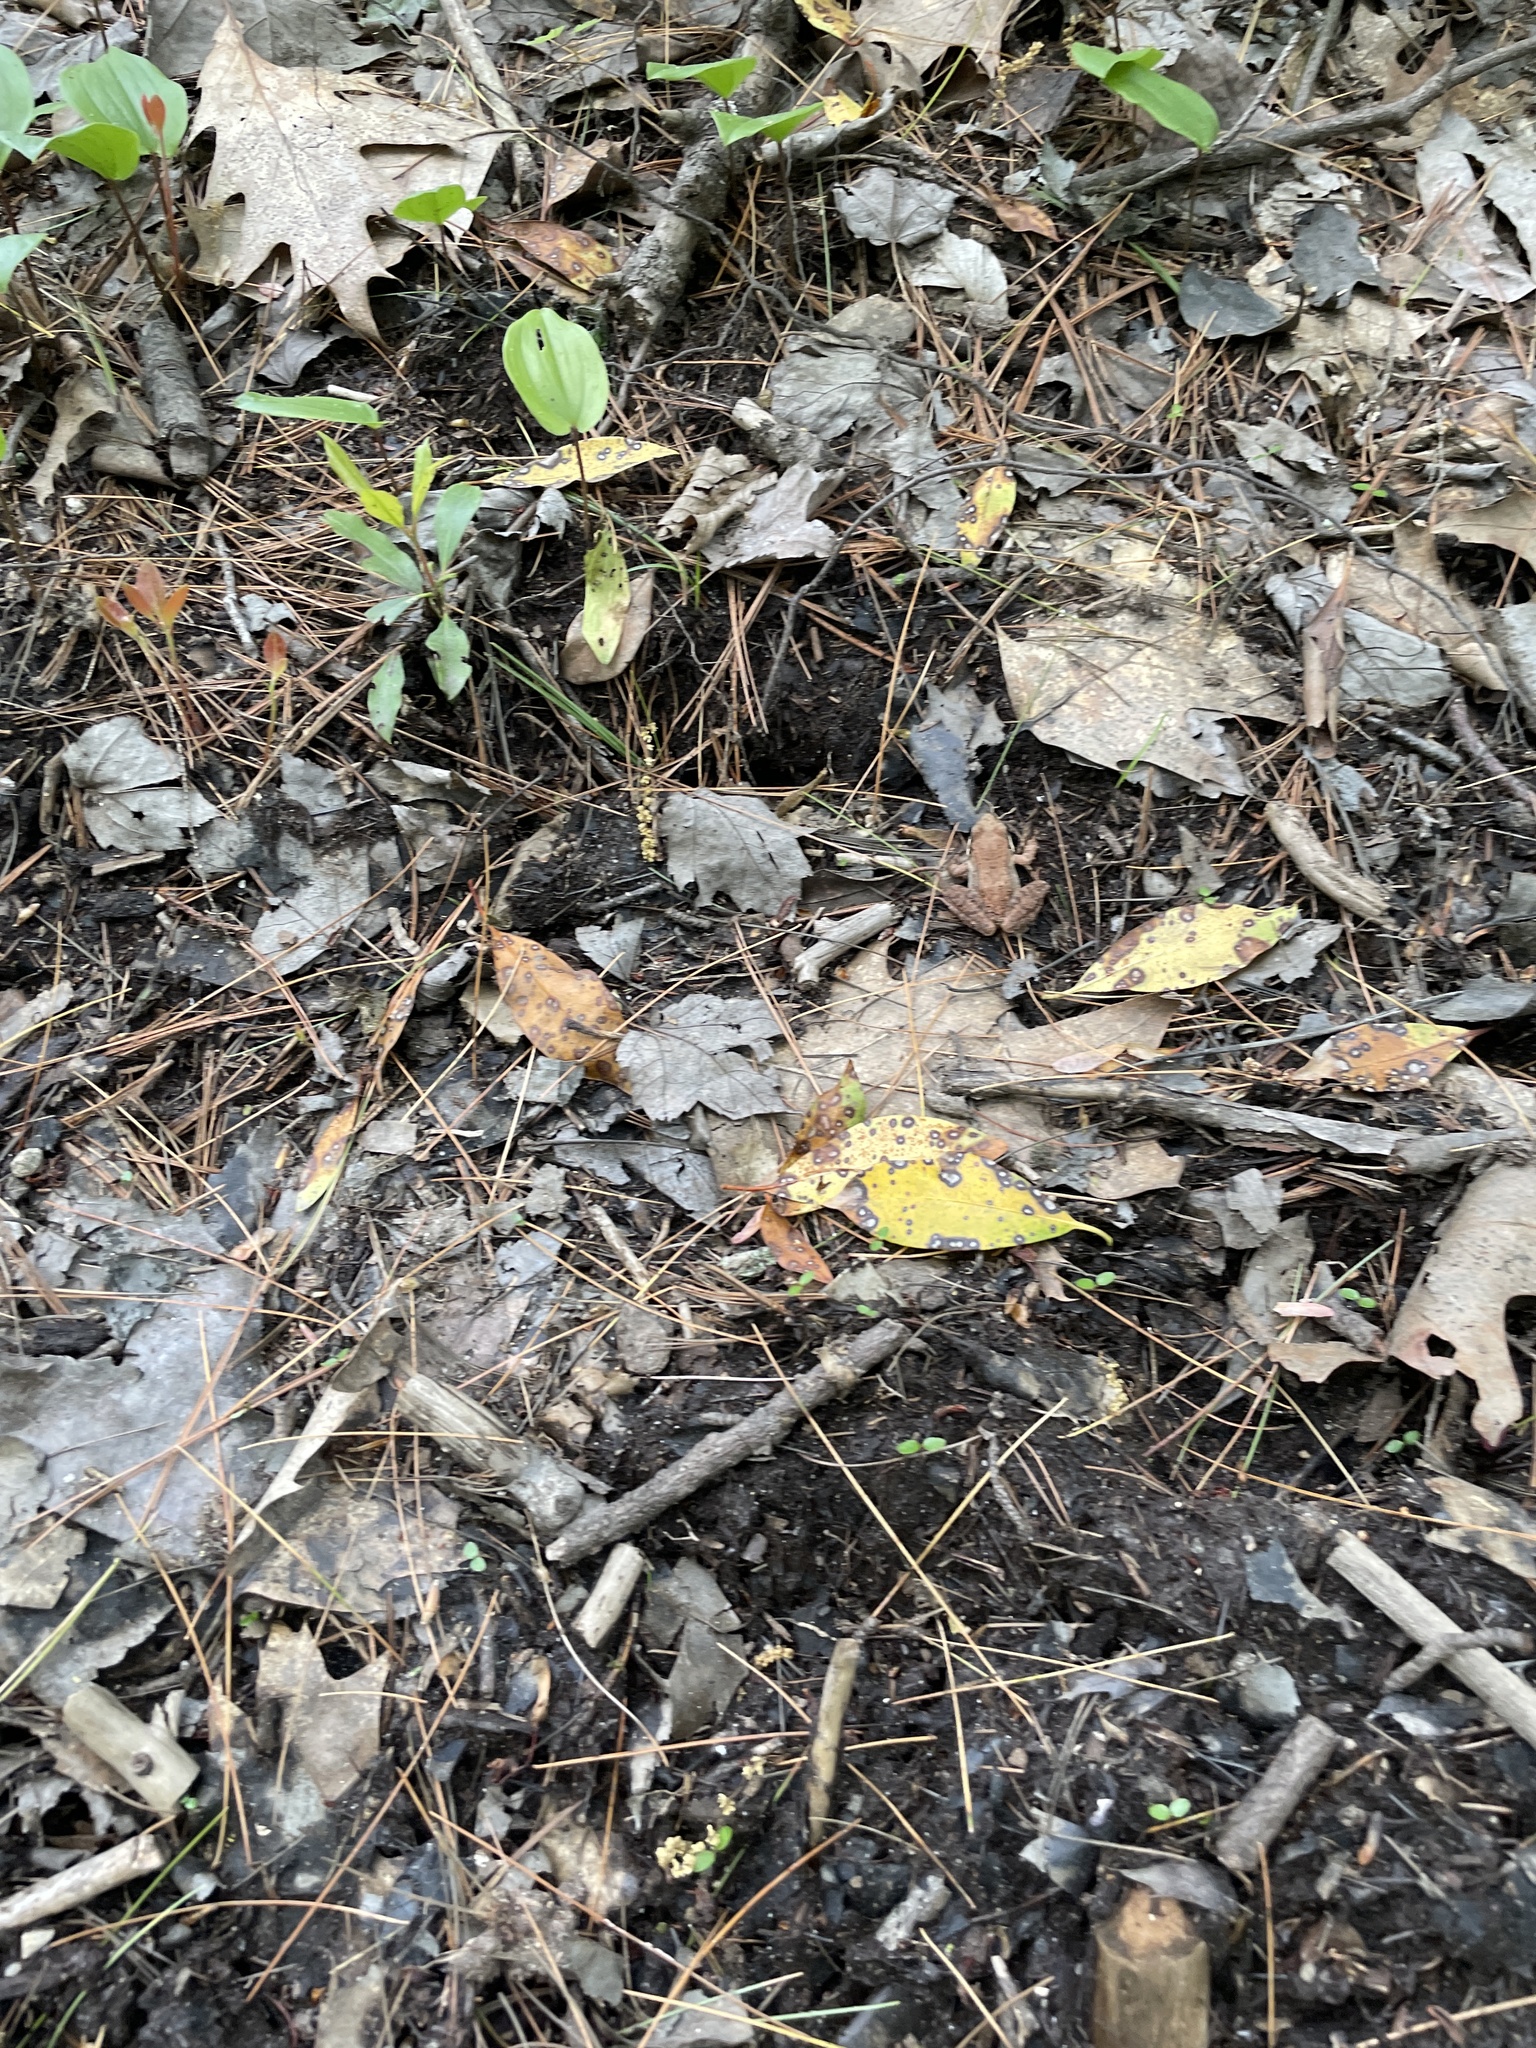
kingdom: Animalia
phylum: Chordata
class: Amphibia
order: Anura
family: Ranidae
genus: Lithobates
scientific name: Lithobates sylvaticus
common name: Wood frog
